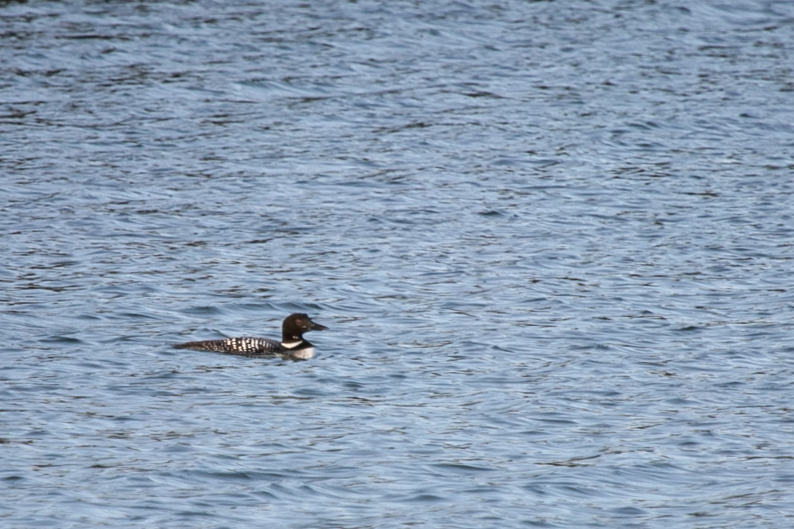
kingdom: Animalia
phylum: Chordata
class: Aves
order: Gaviiformes
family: Gaviidae
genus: Gavia
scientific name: Gavia immer
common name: Common loon
